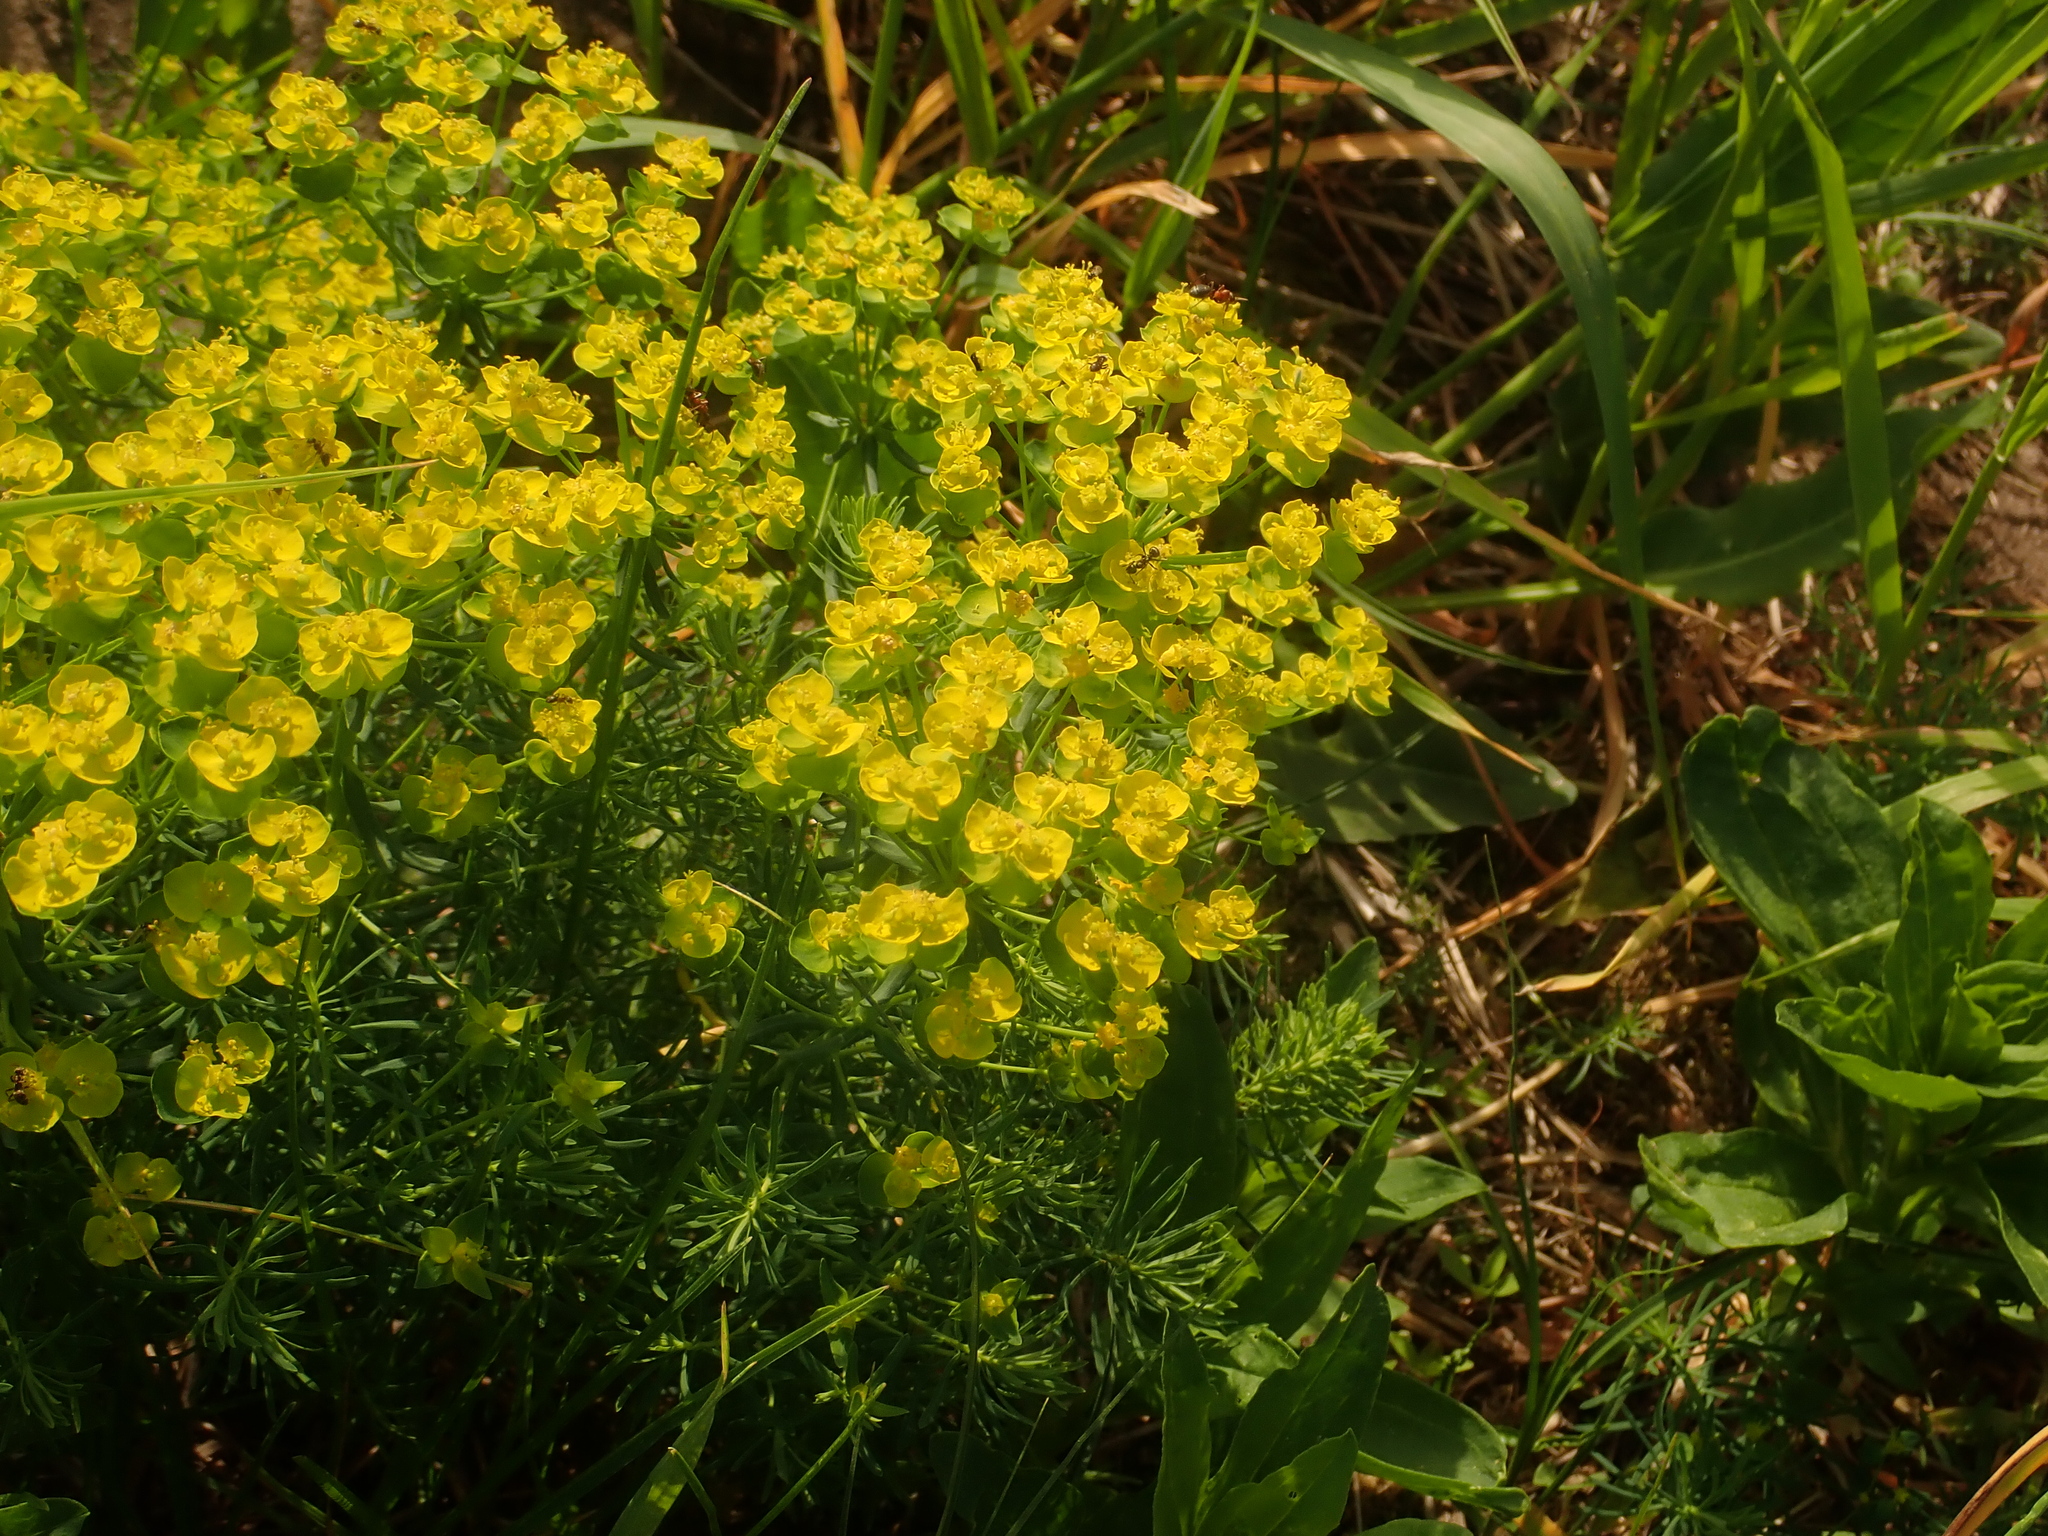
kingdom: Plantae
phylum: Tracheophyta
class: Magnoliopsida
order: Malpighiales
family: Euphorbiaceae
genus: Euphorbia
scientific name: Euphorbia cyparissias
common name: Cypress spurge
